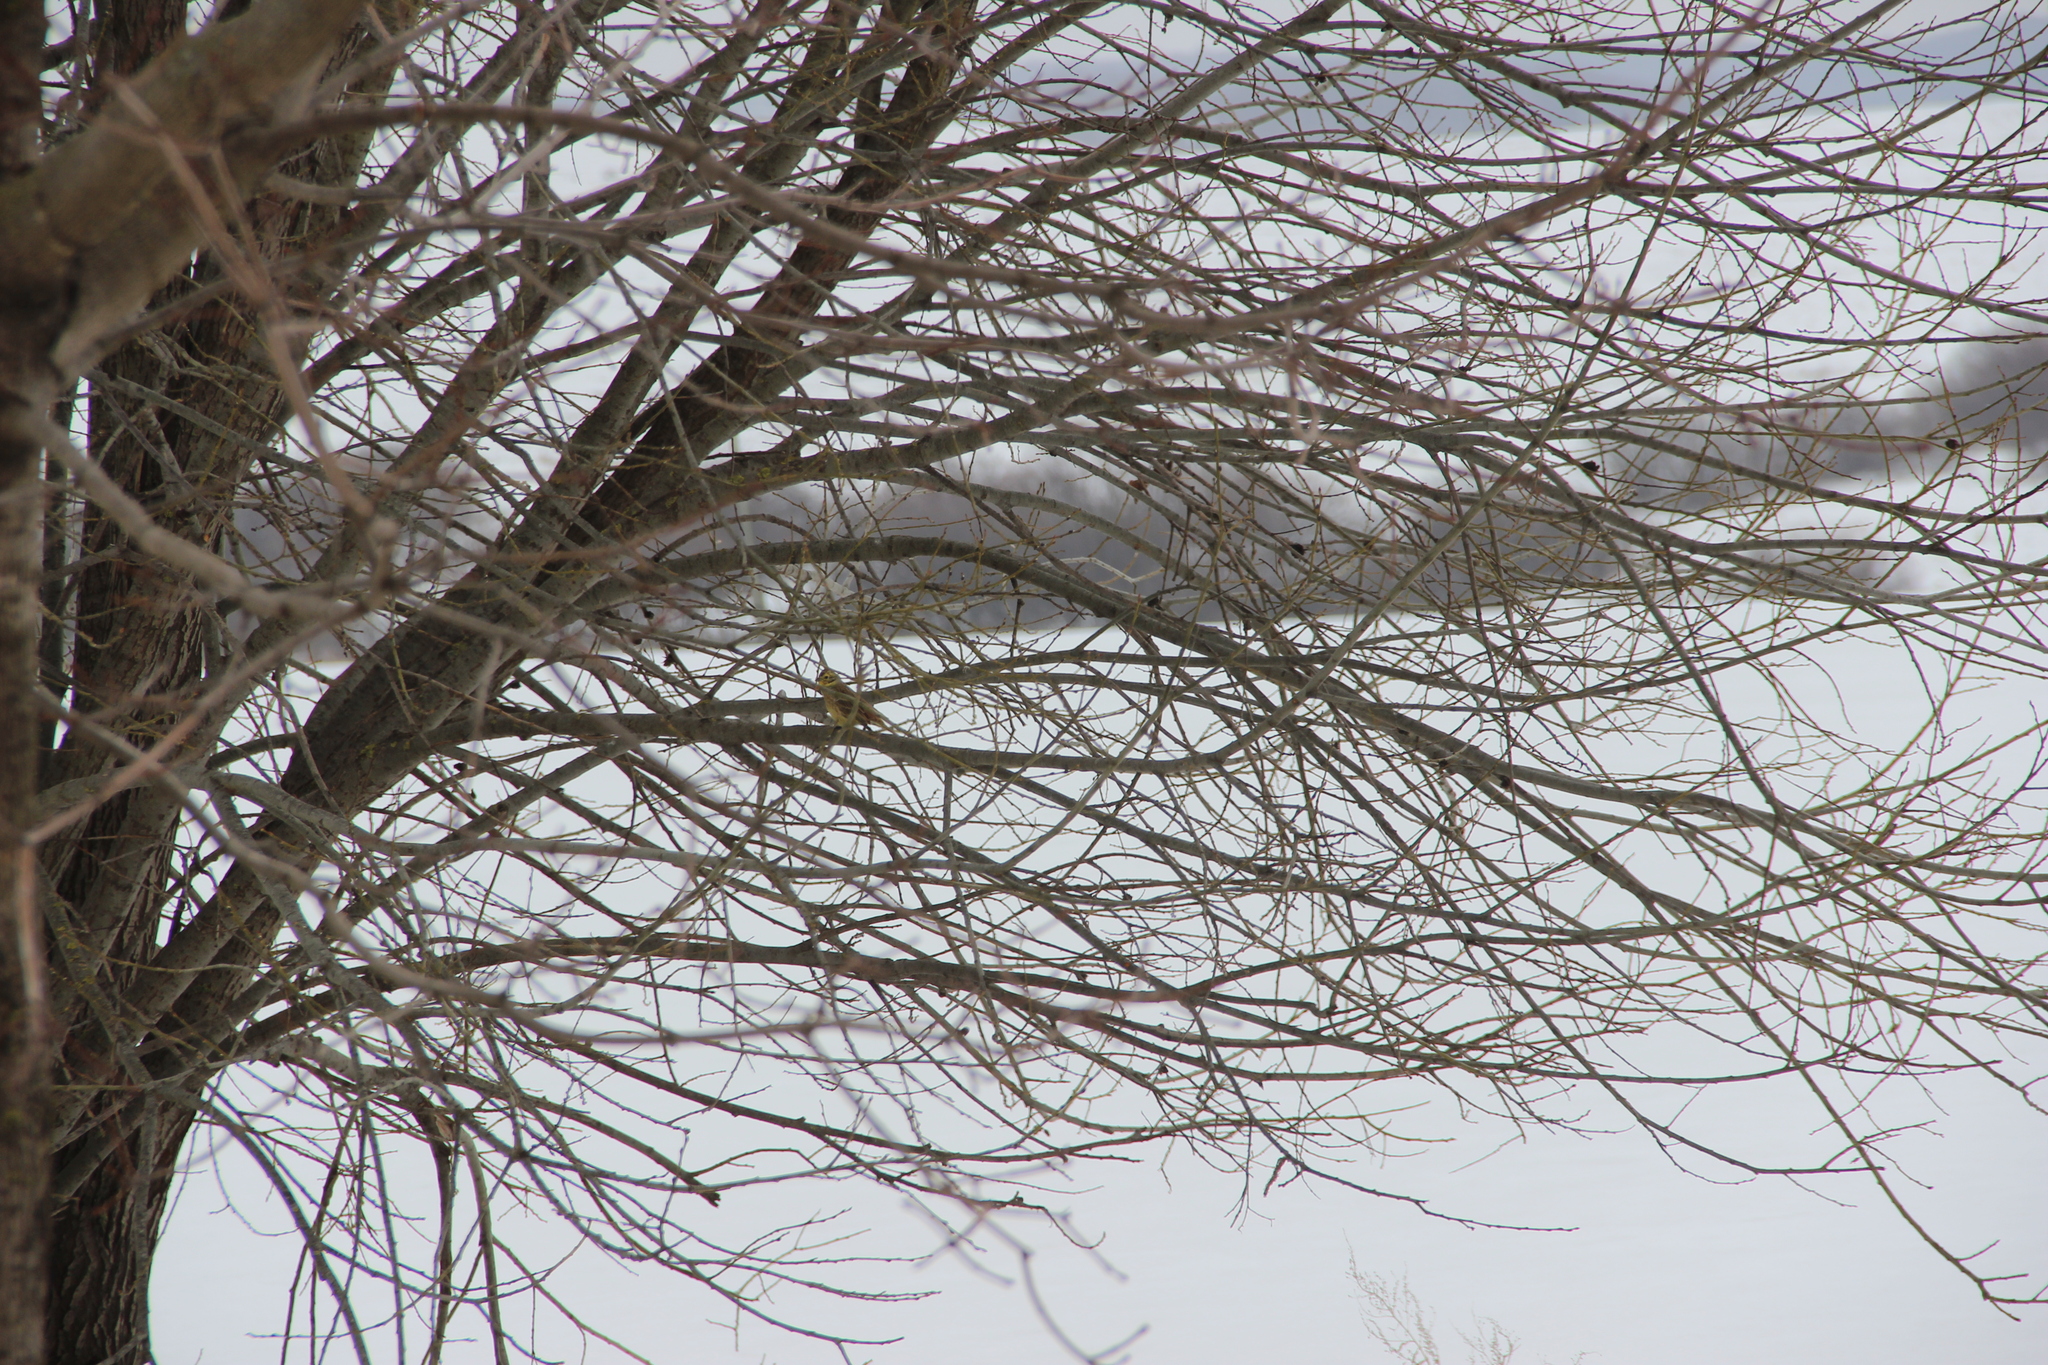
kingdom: Animalia
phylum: Chordata
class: Aves
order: Passeriformes
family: Emberizidae
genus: Emberiza
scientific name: Emberiza citrinella
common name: Yellowhammer
